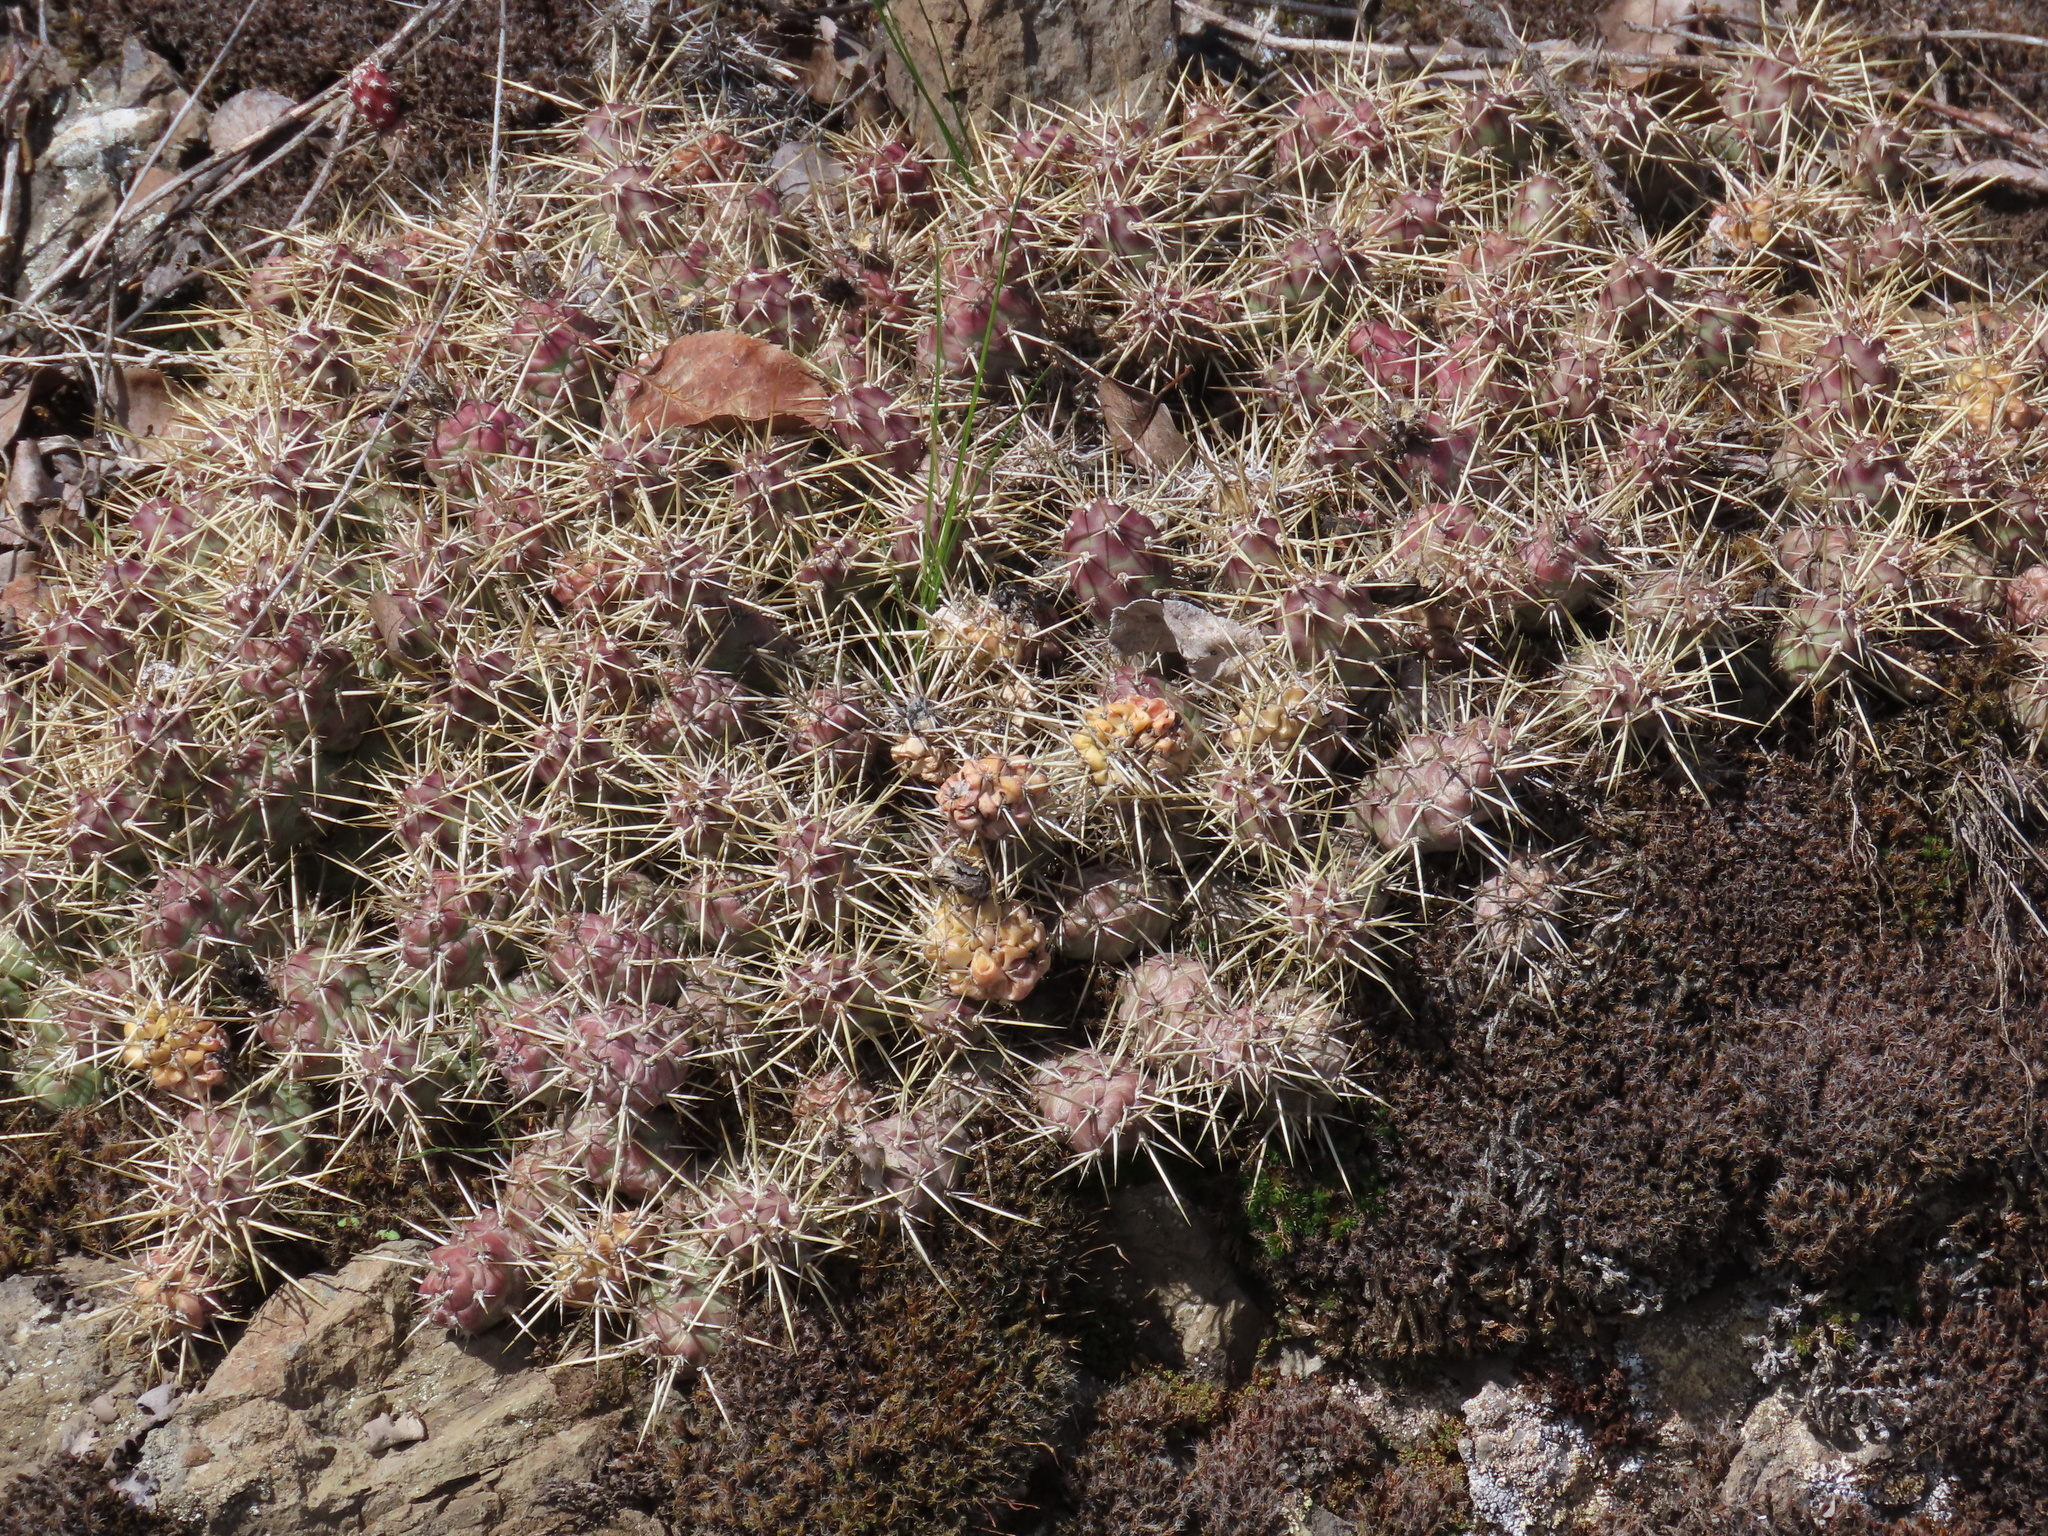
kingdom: Plantae
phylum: Tracheophyta
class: Magnoliopsida
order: Caryophyllales
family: Cactaceae
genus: Opuntia
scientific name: Opuntia fragilis
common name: Brittle cactus
